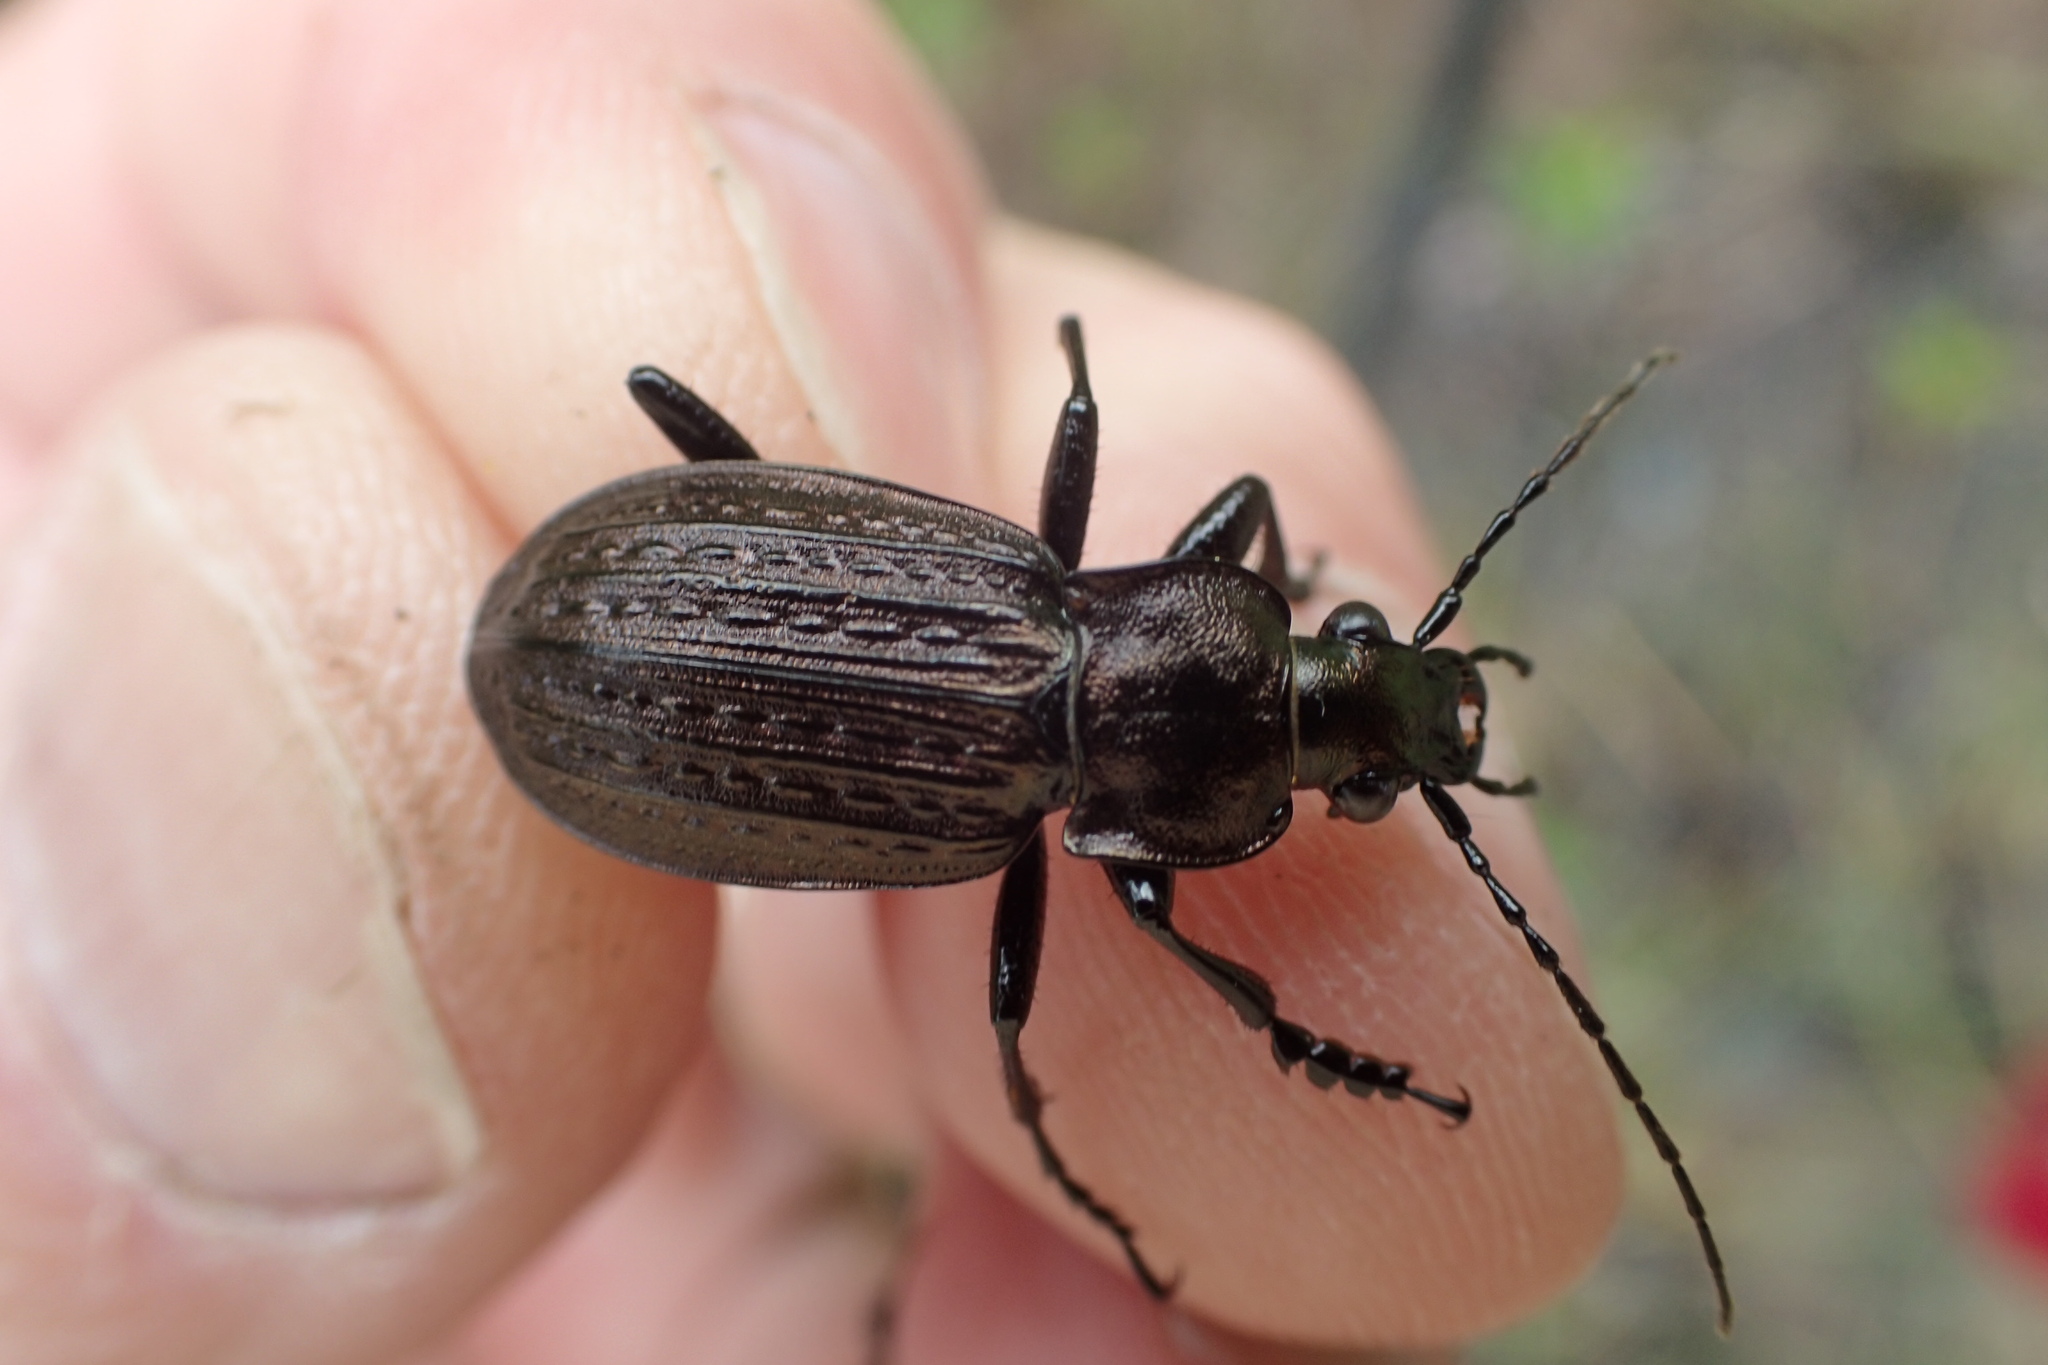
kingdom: Animalia
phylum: Arthropoda
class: Insecta
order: Coleoptera
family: Carabidae
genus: Carabus
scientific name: Carabus granulatus
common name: Granulate ground beetle
